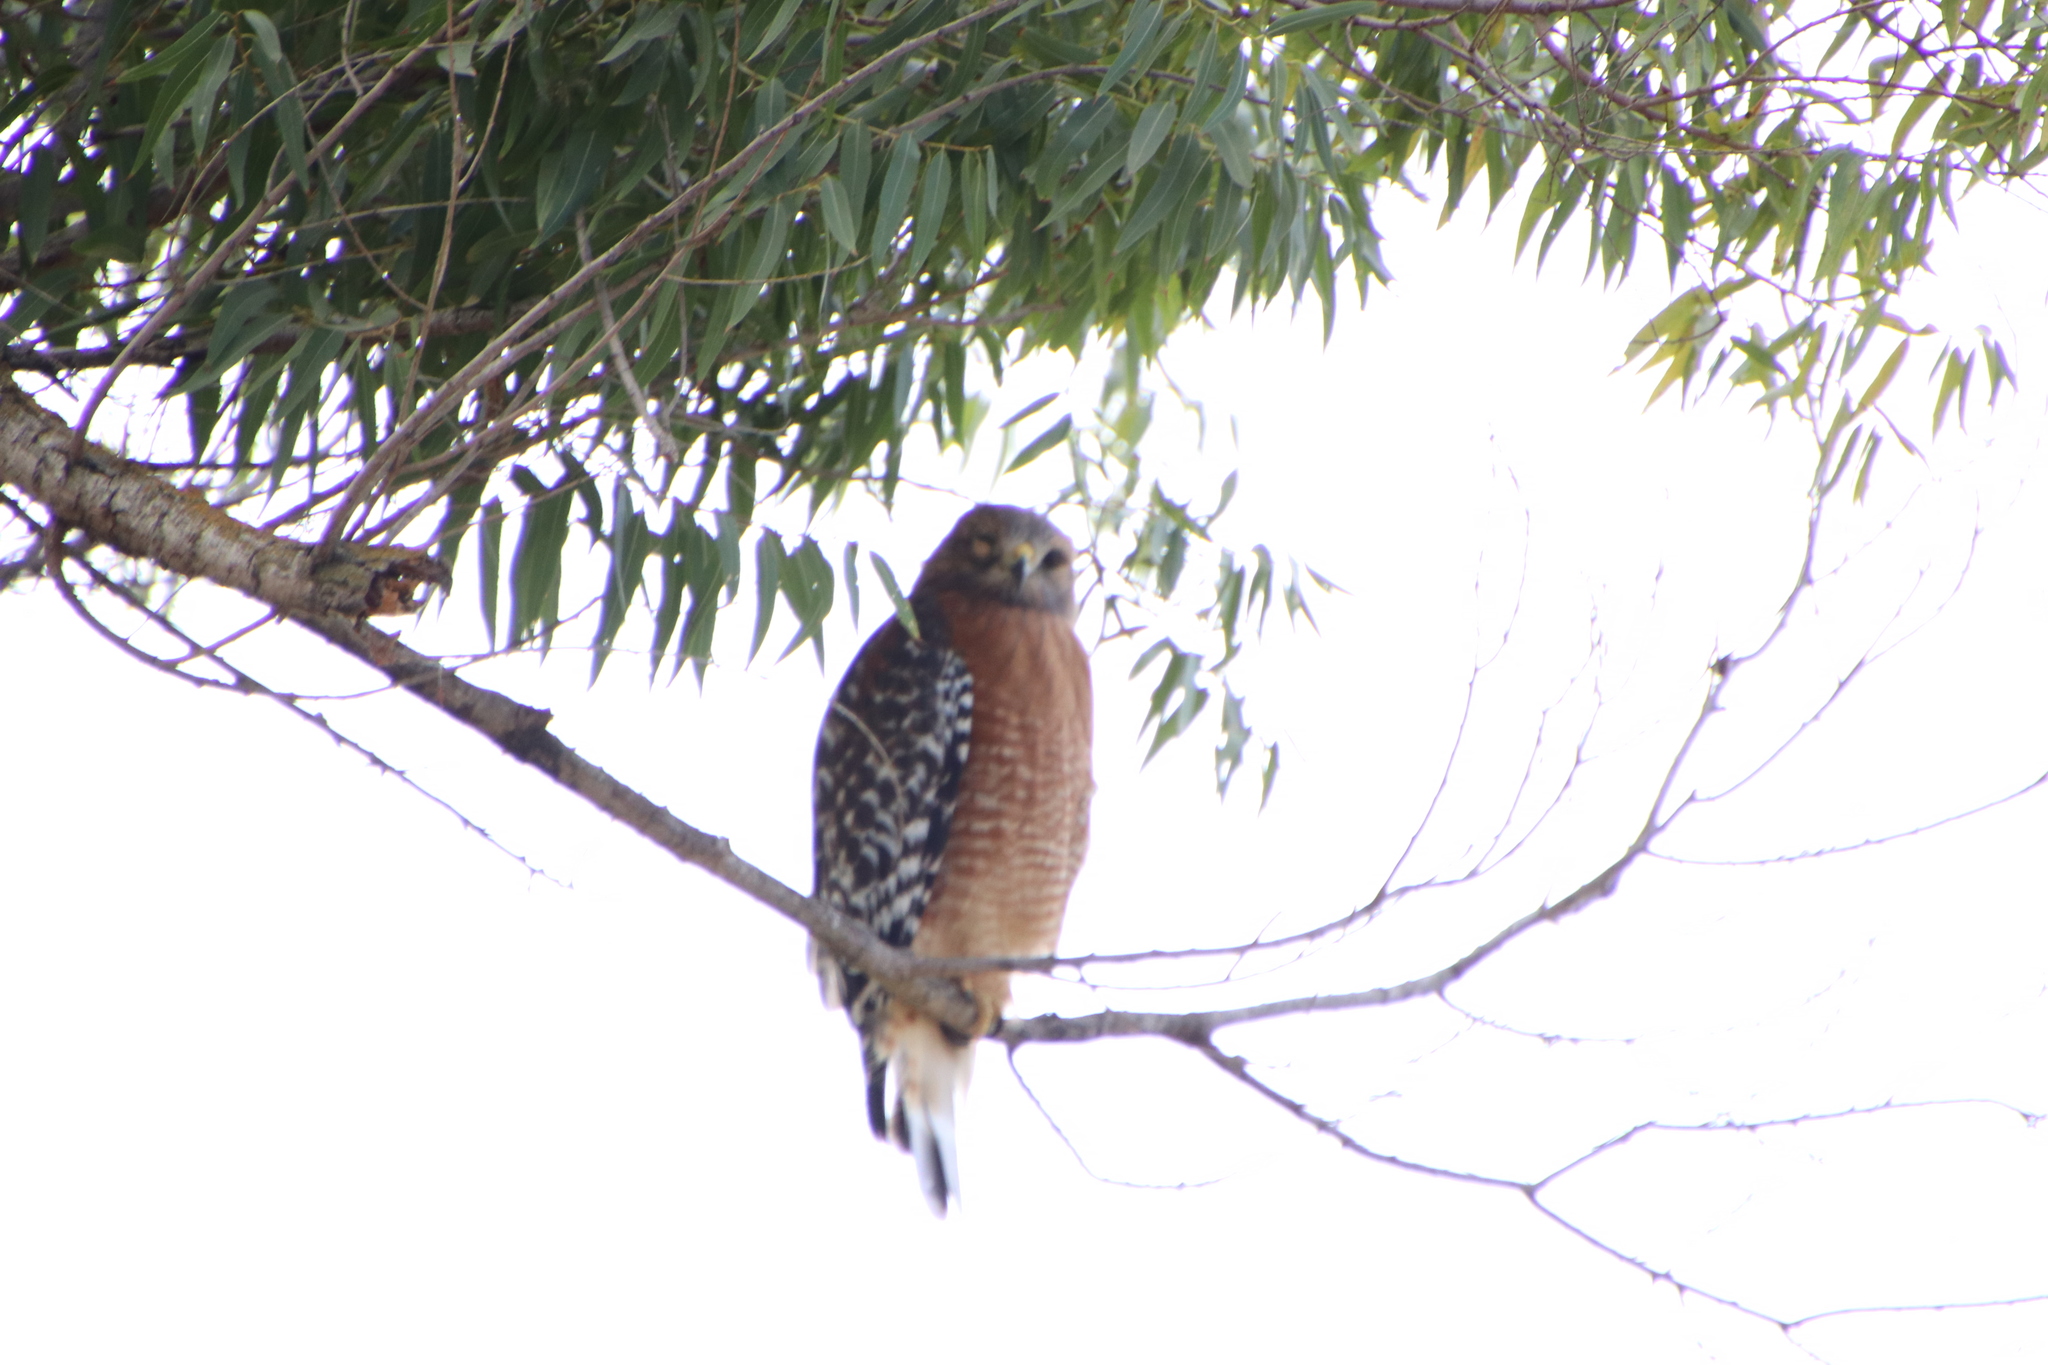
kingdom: Animalia
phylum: Chordata
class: Aves
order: Accipitriformes
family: Accipitridae
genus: Buteo
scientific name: Buteo lineatus
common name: Red-shouldered hawk
